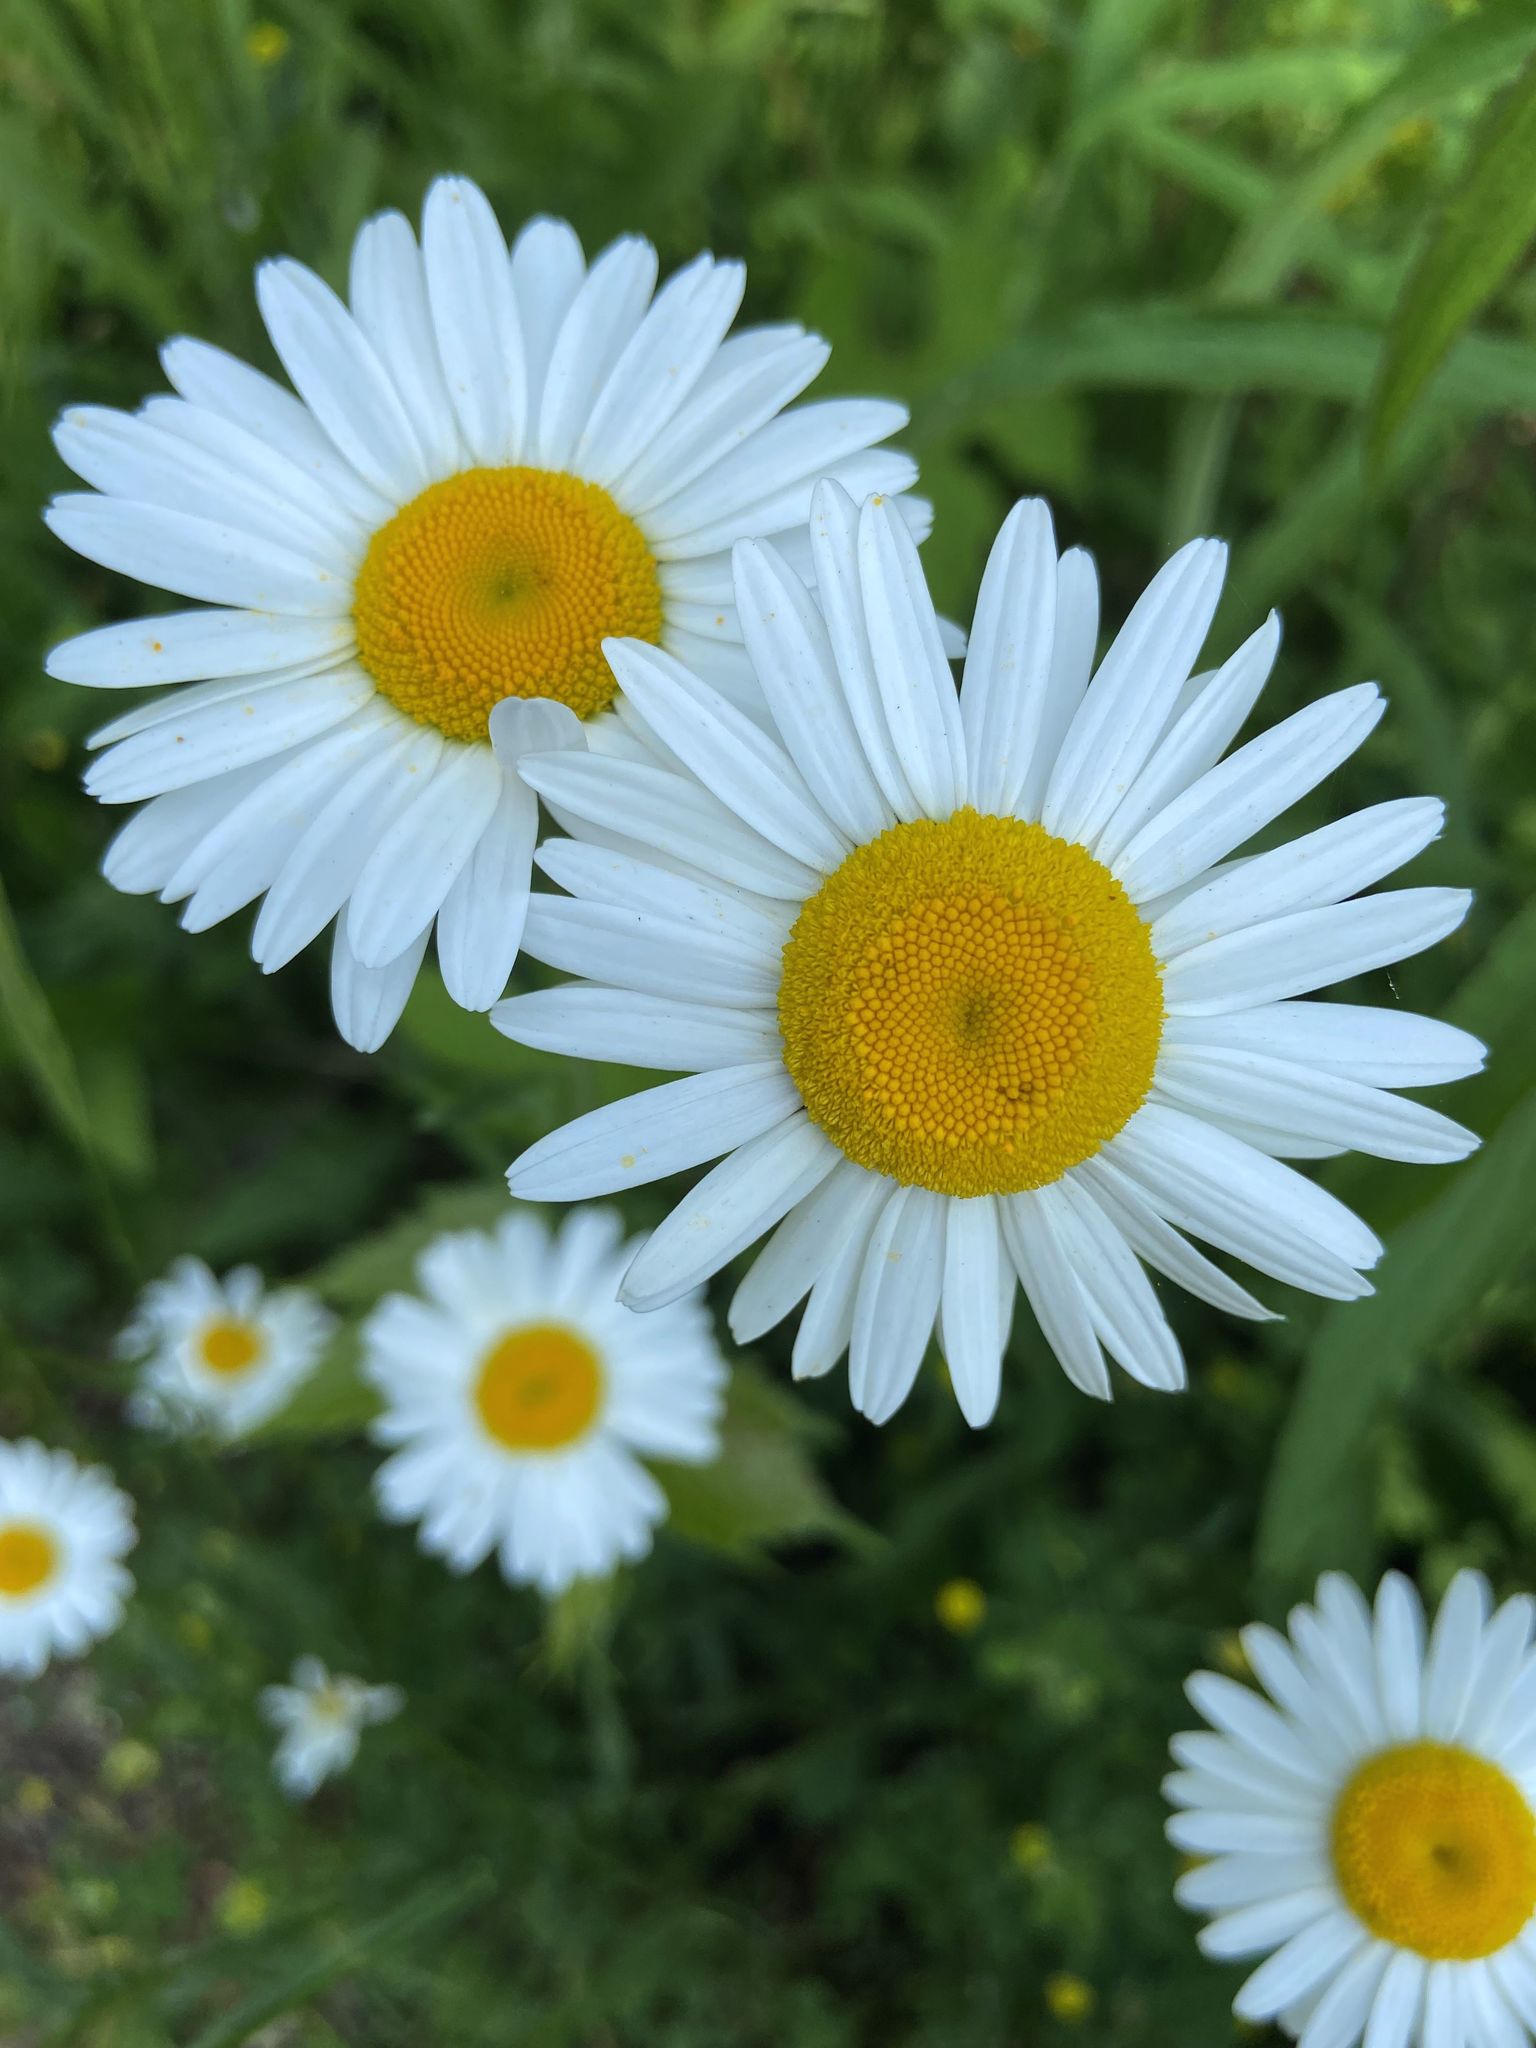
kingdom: Plantae
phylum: Tracheophyta
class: Magnoliopsida
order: Asterales
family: Asteraceae
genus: Leucanthemum
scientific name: Leucanthemum vulgare
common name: Oxeye daisy
